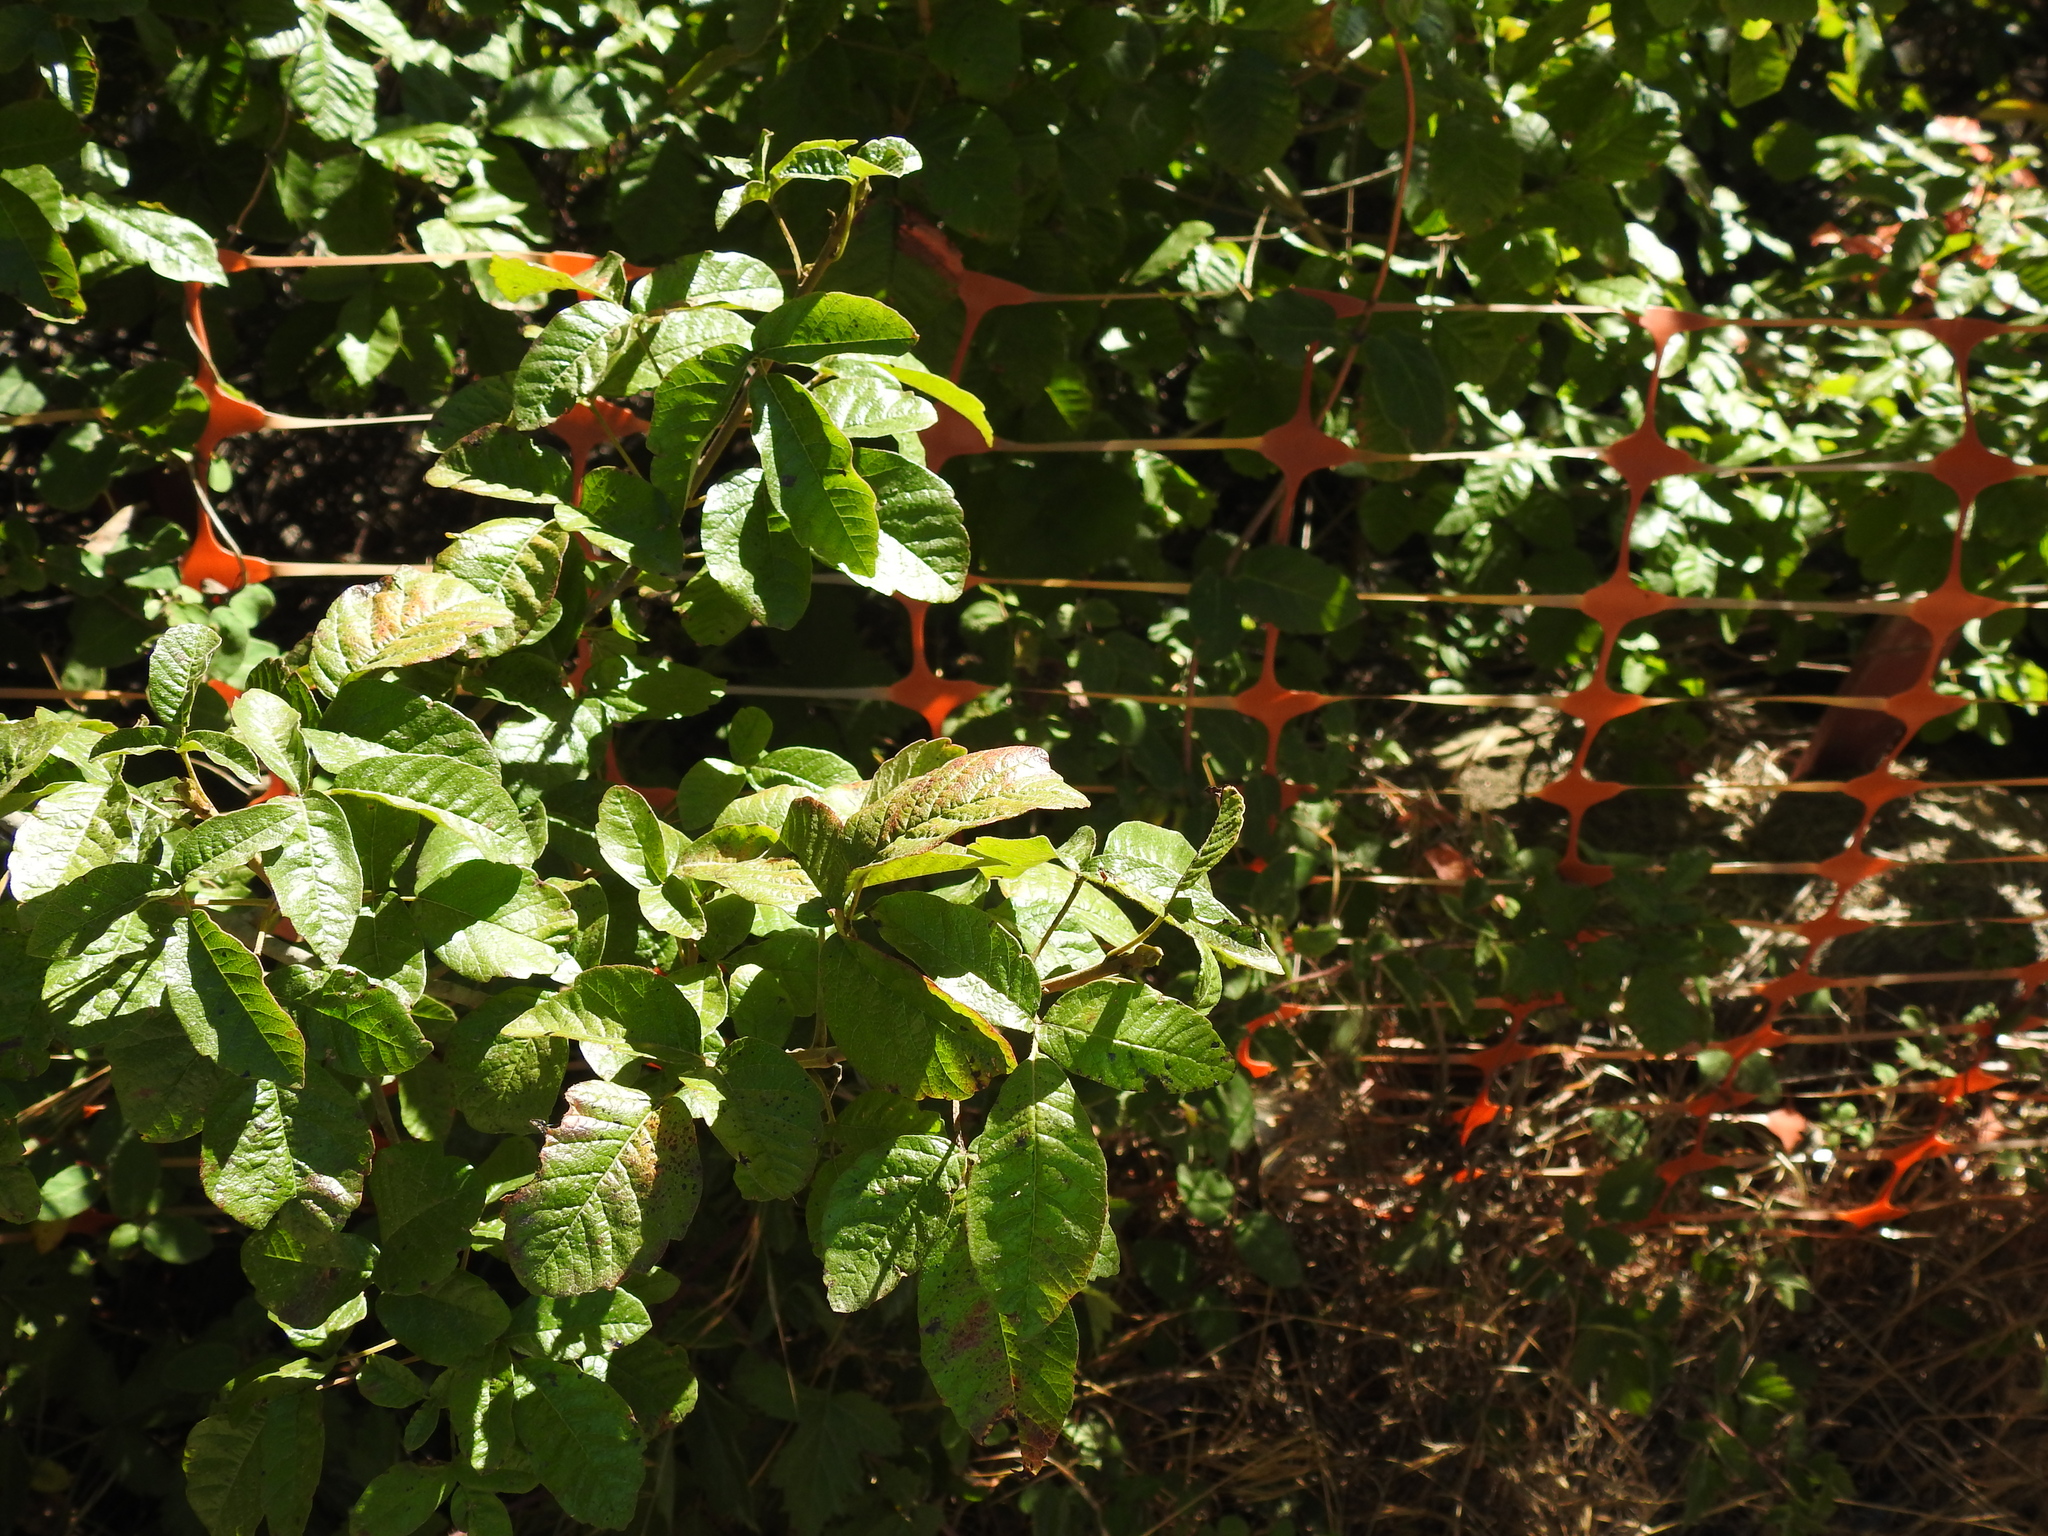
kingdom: Plantae
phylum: Tracheophyta
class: Magnoliopsida
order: Sapindales
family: Anacardiaceae
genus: Toxicodendron
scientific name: Toxicodendron diversilobum
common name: Pacific poison-oak
